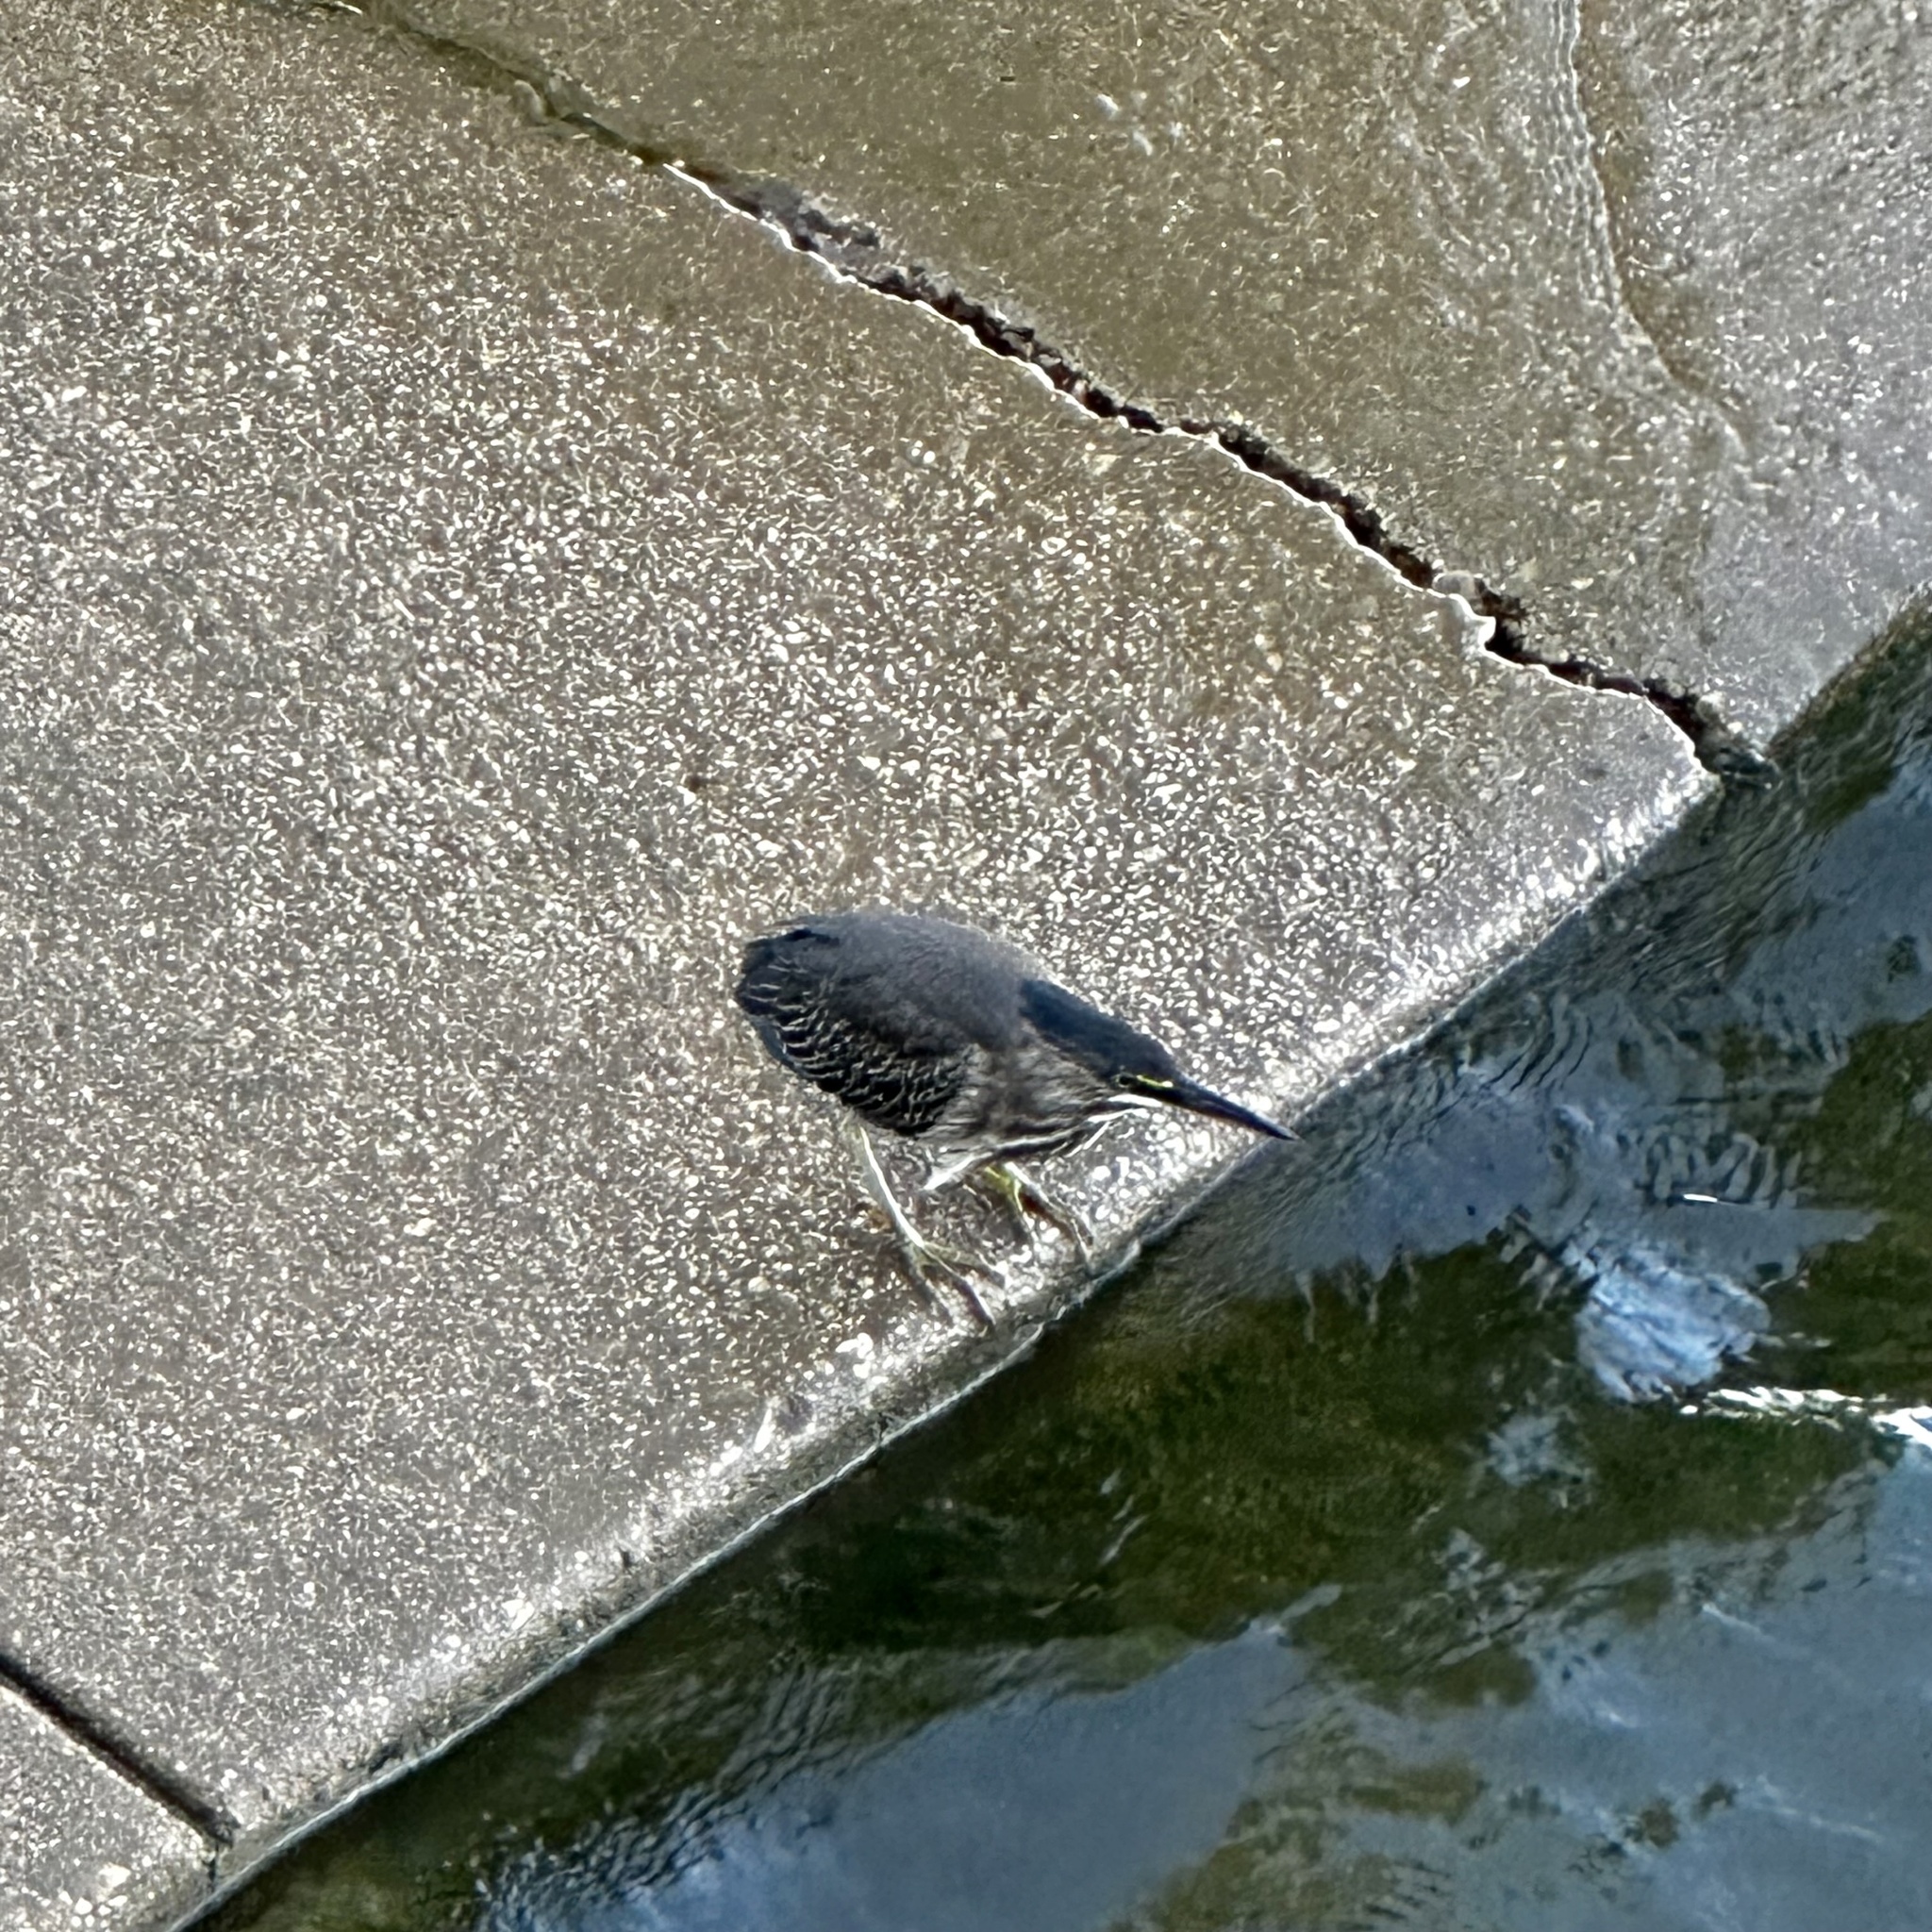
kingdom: Animalia
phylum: Chordata
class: Aves
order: Pelecaniformes
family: Ardeidae
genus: Butorides
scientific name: Butorides virescens
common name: Green heron
